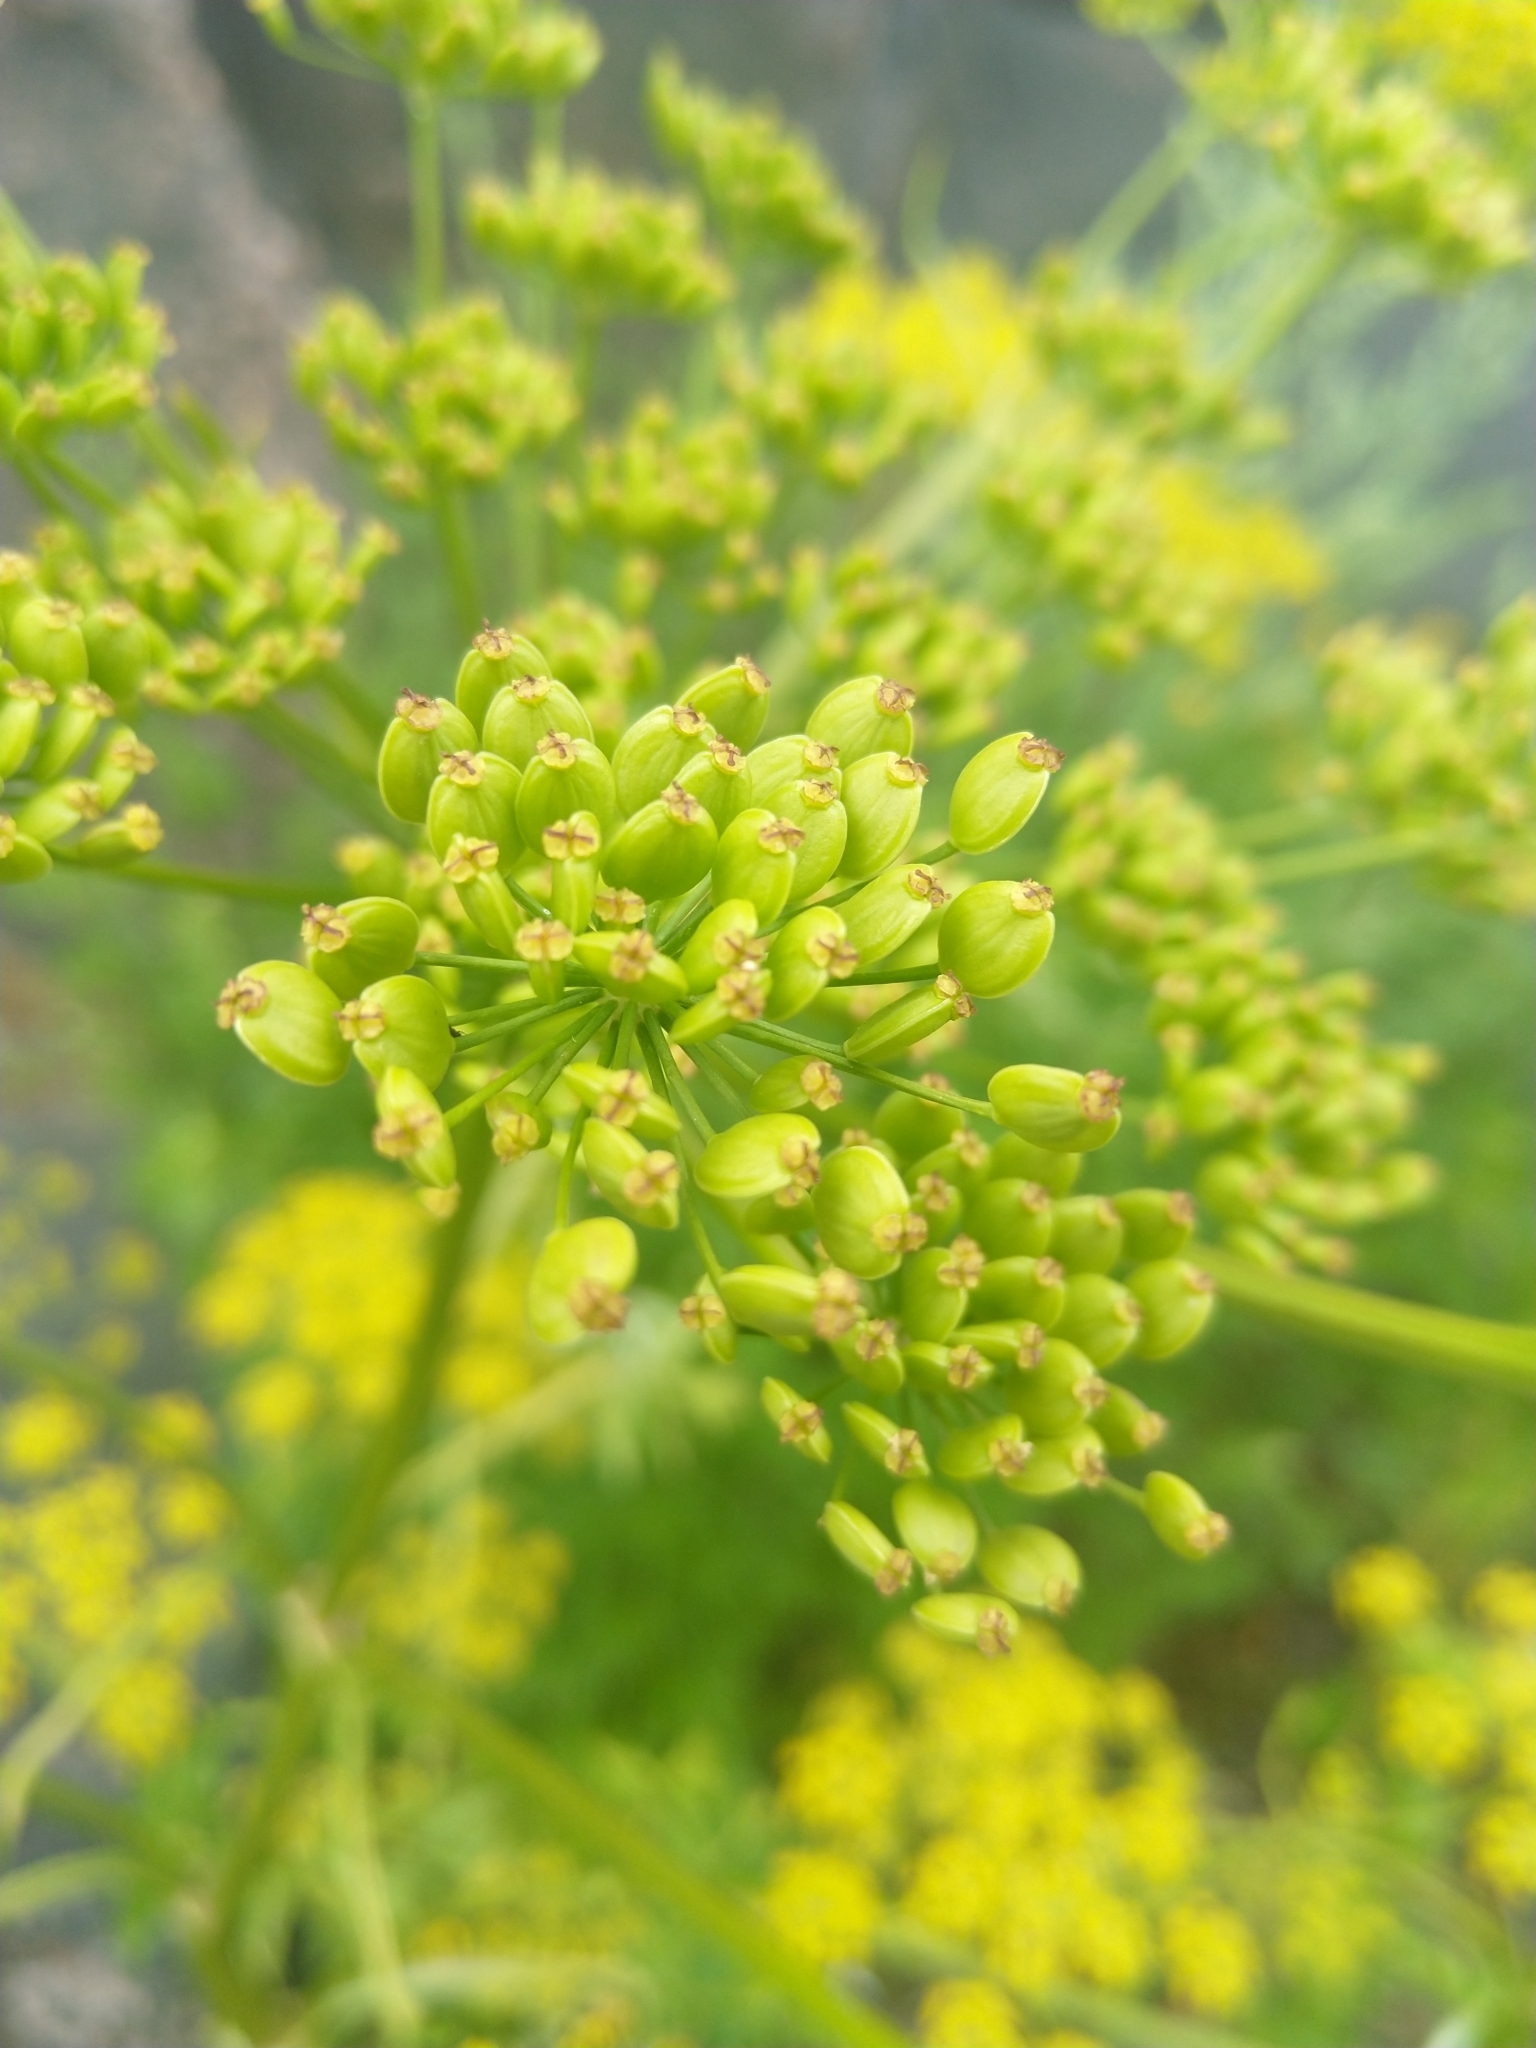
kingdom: Plantae
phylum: Tracheophyta
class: Magnoliopsida
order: Apiales
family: Apiaceae
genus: Pastinaca
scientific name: Pastinaca sativa
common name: Wild parsnip
